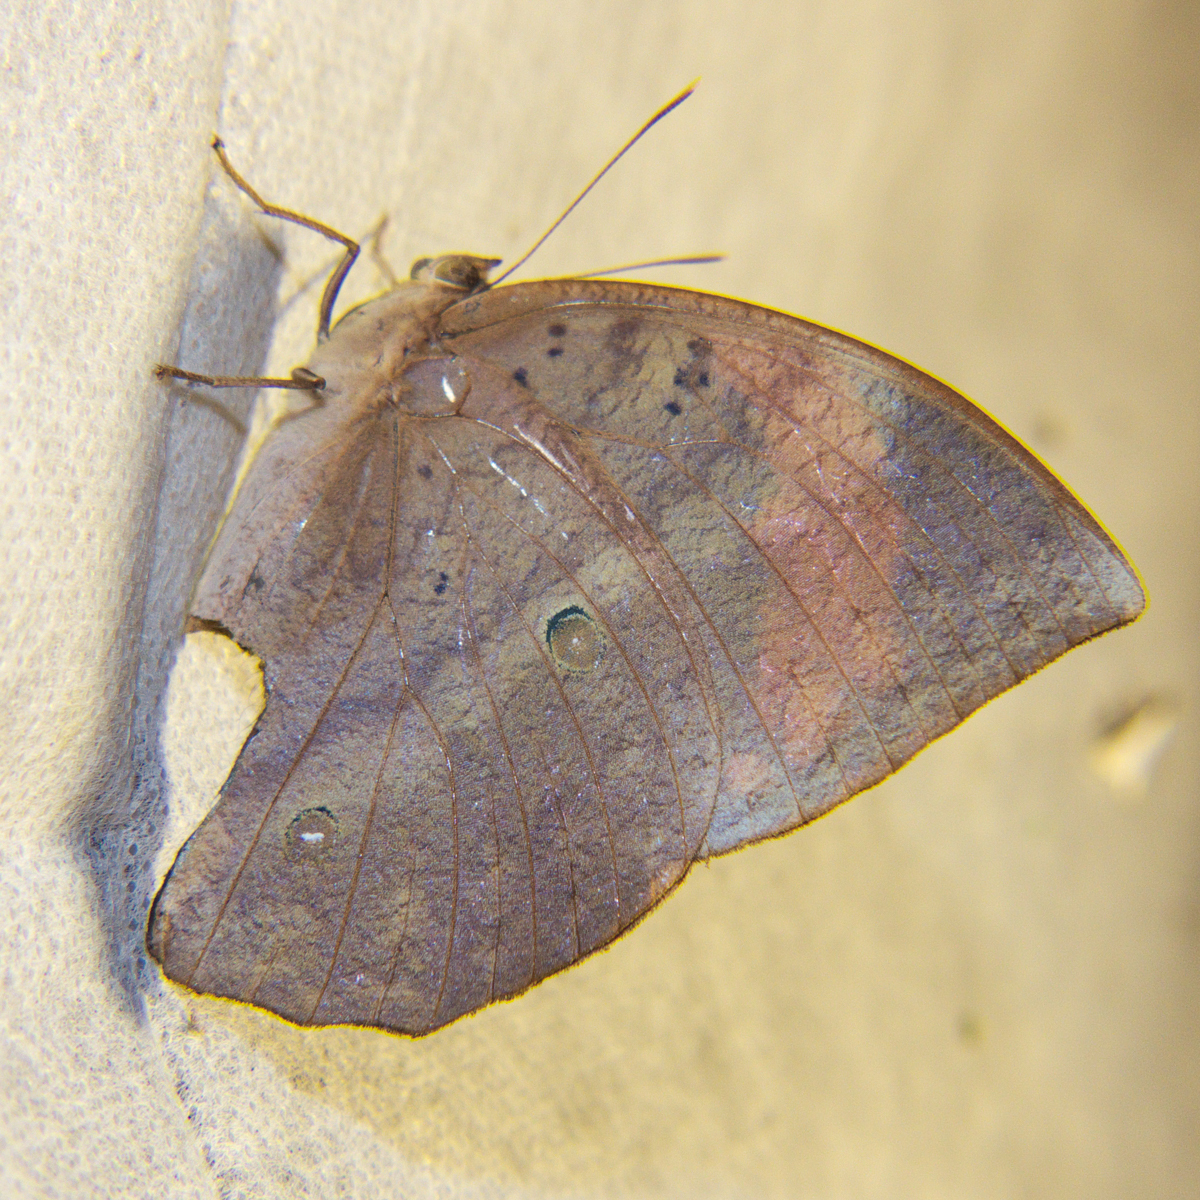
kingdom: Animalia
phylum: Arthropoda
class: Insecta
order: Lepidoptera
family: Nymphalidae
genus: Discophora
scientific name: Discophora timora
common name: Great duffer
